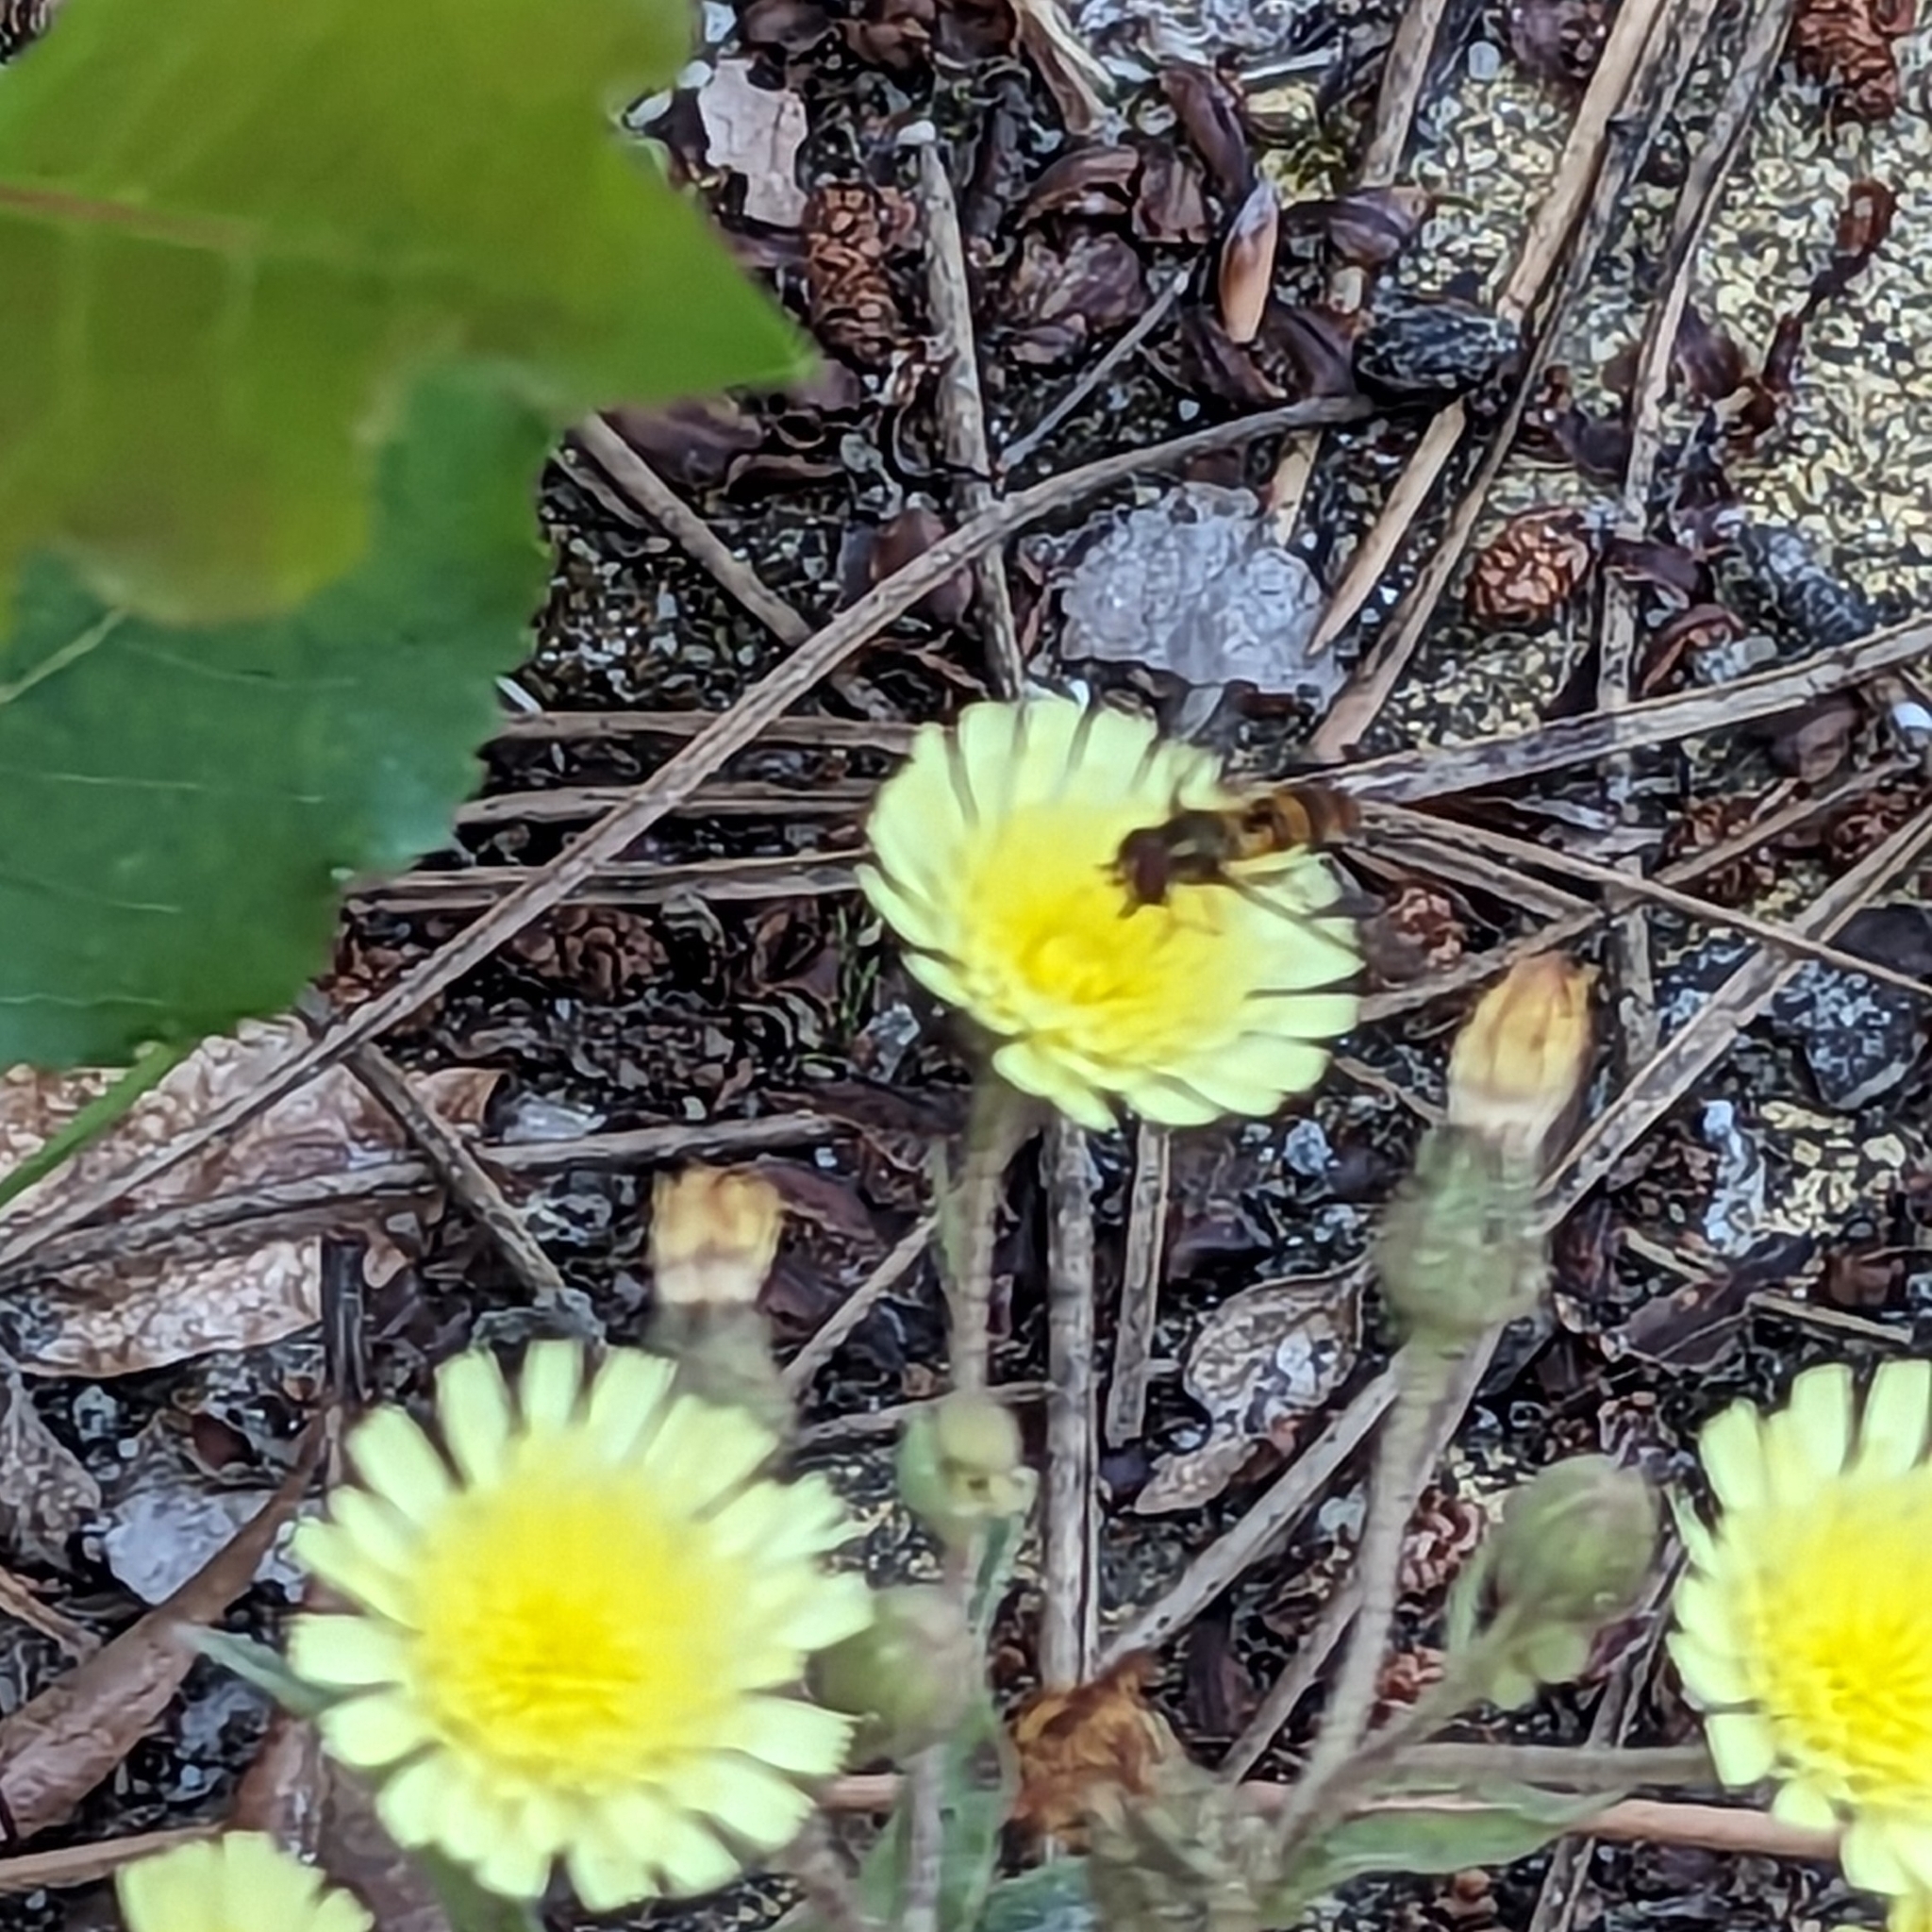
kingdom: Animalia
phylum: Arthropoda
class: Insecta
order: Diptera
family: Syrphidae
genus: Episyrphus
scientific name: Episyrphus balteatus
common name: Marmalade hoverfly
